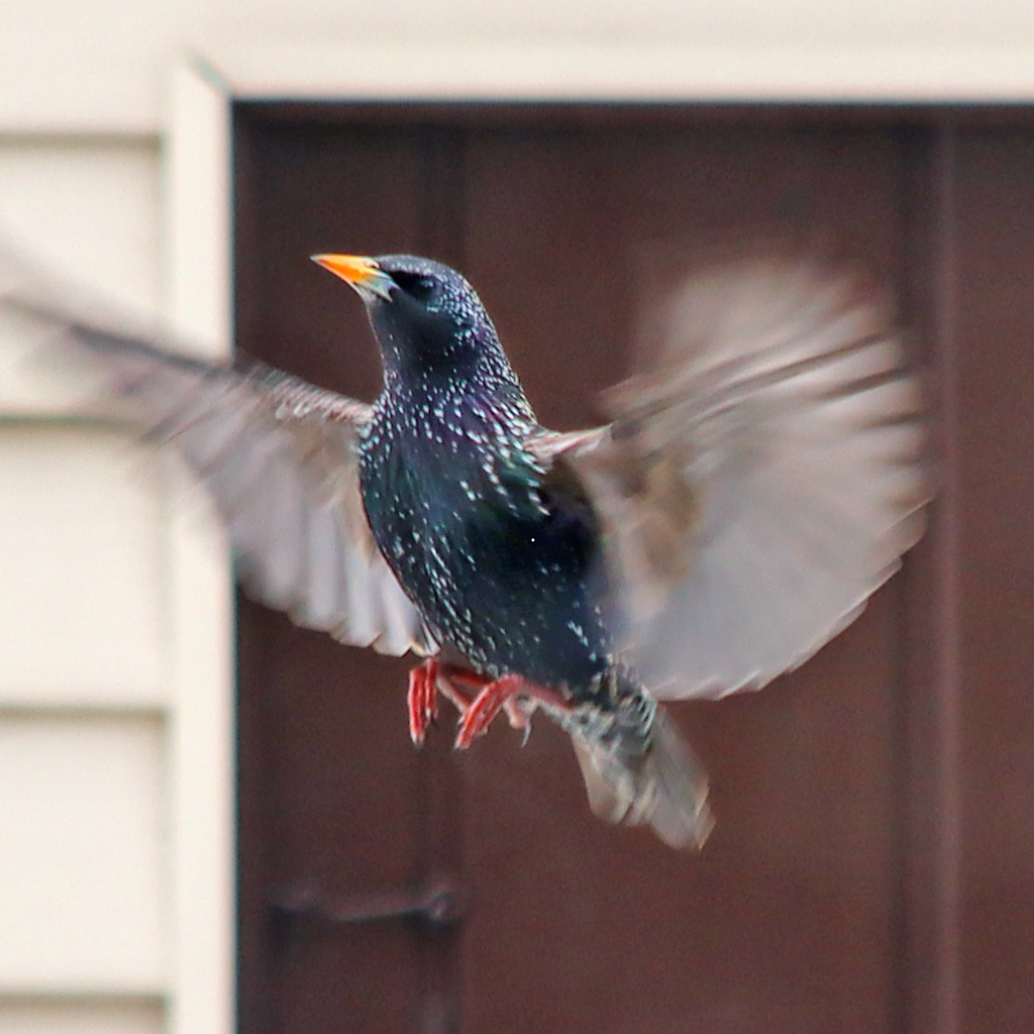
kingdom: Animalia
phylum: Chordata
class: Aves
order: Passeriformes
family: Sturnidae
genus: Sturnus
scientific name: Sturnus vulgaris
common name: Common starling
